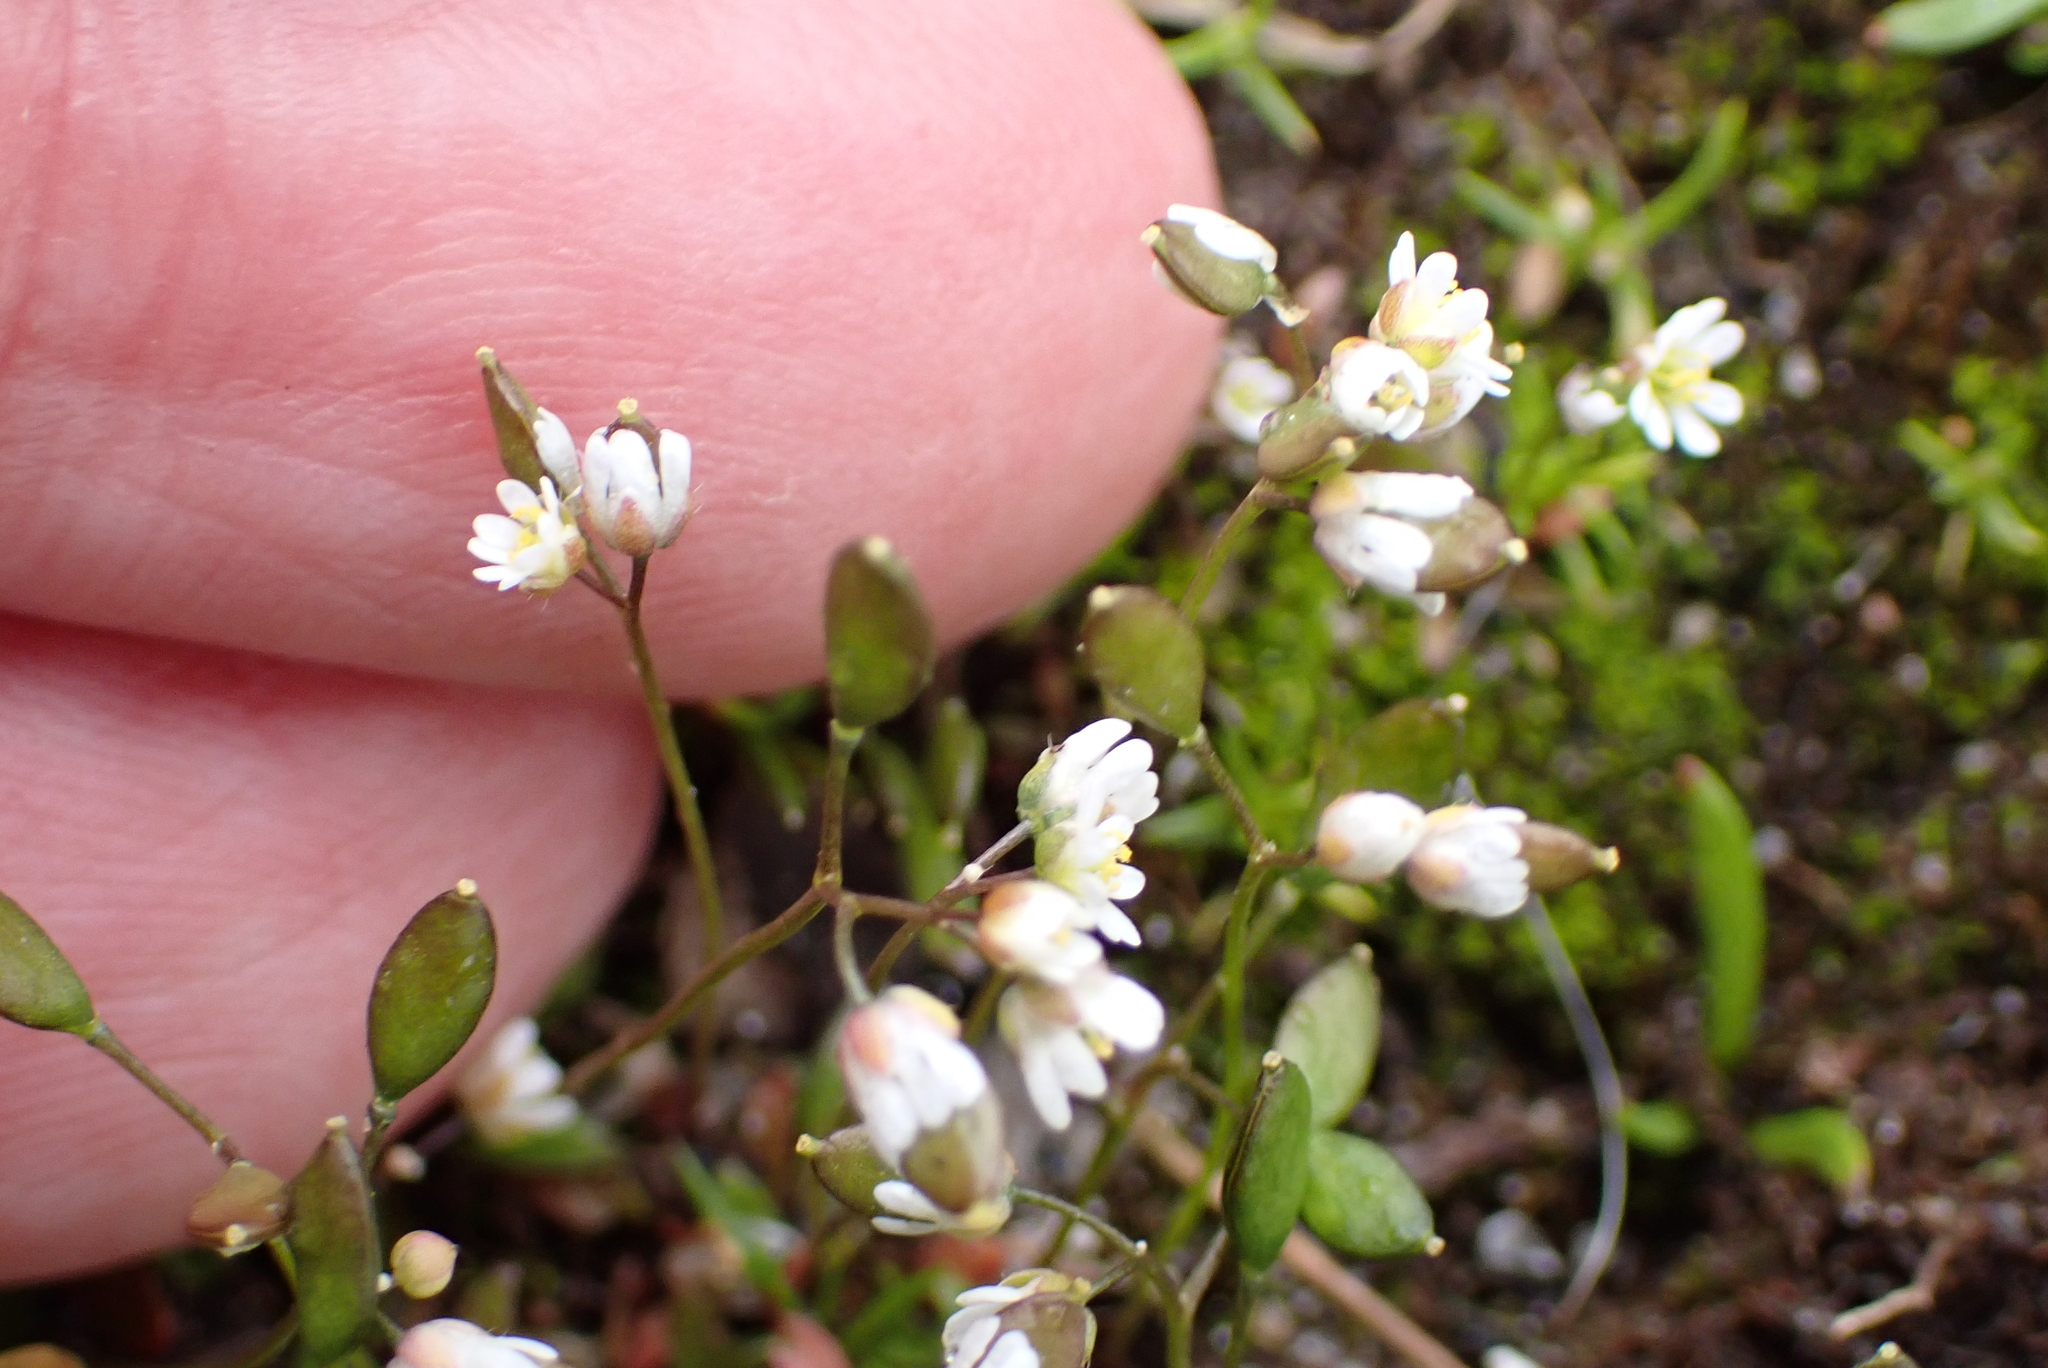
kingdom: Plantae
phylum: Tracheophyta
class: Magnoliopsida
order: Brassicales
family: Brassicaceae
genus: Draba
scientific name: Draba verna
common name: Spring draba
